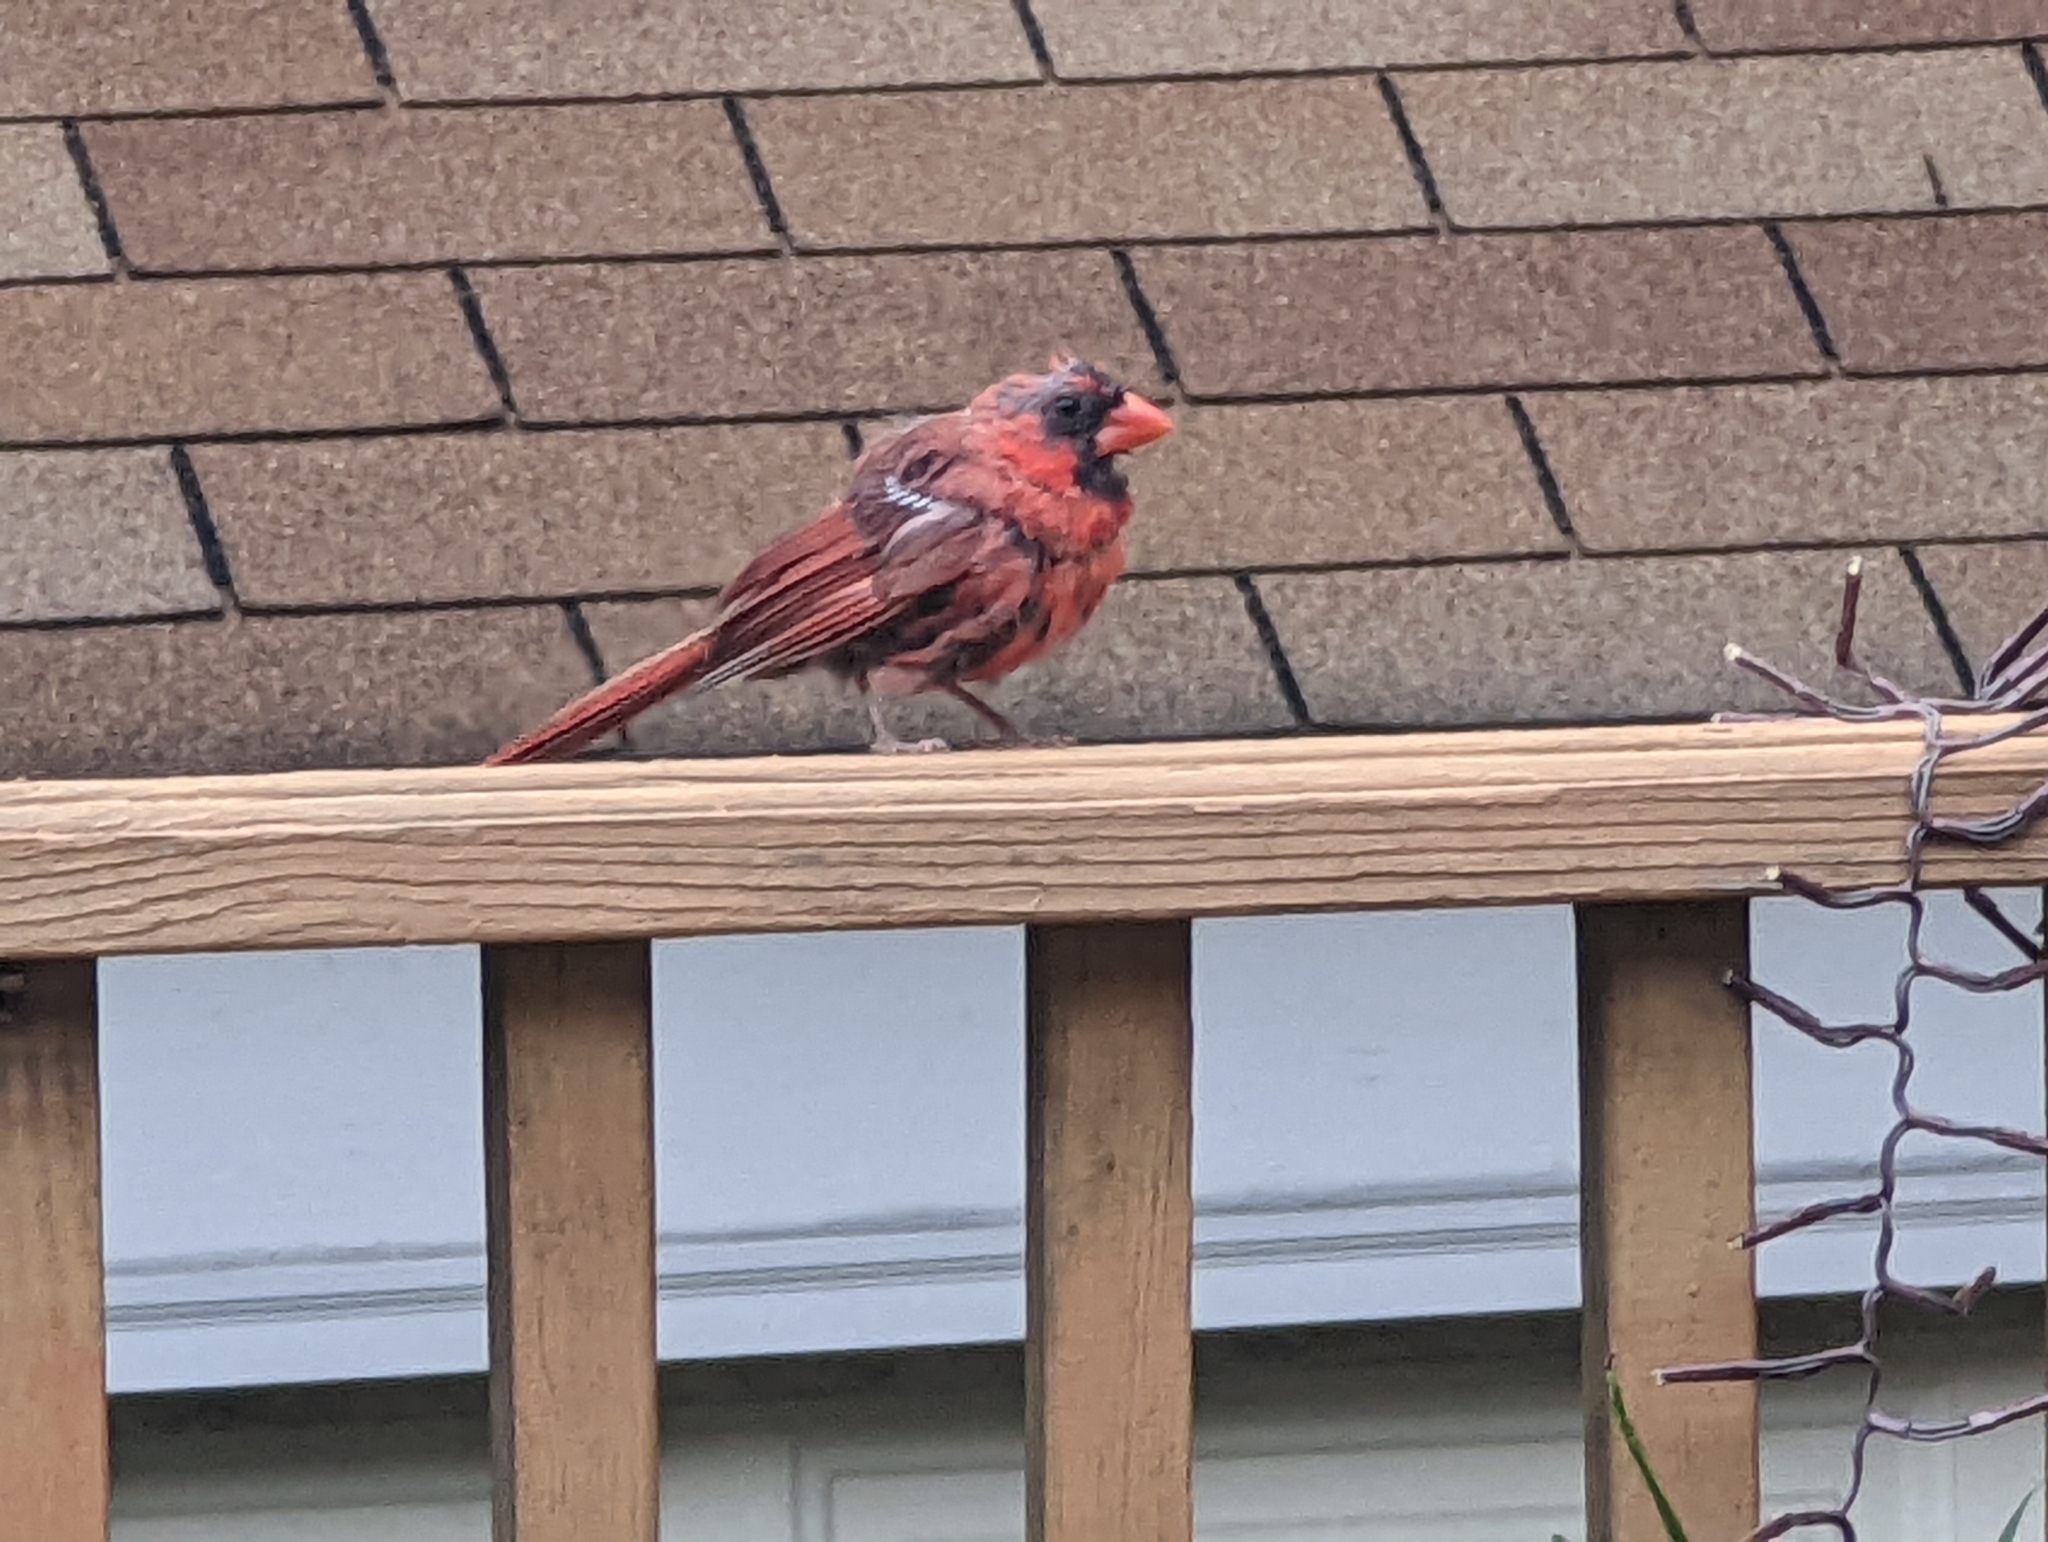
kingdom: Animalia
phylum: Chordata
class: Aves
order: Passeriformes
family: Cardinalidae
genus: Cardinalis
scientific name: Cardinalis cardinalis
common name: Northern cardinal
